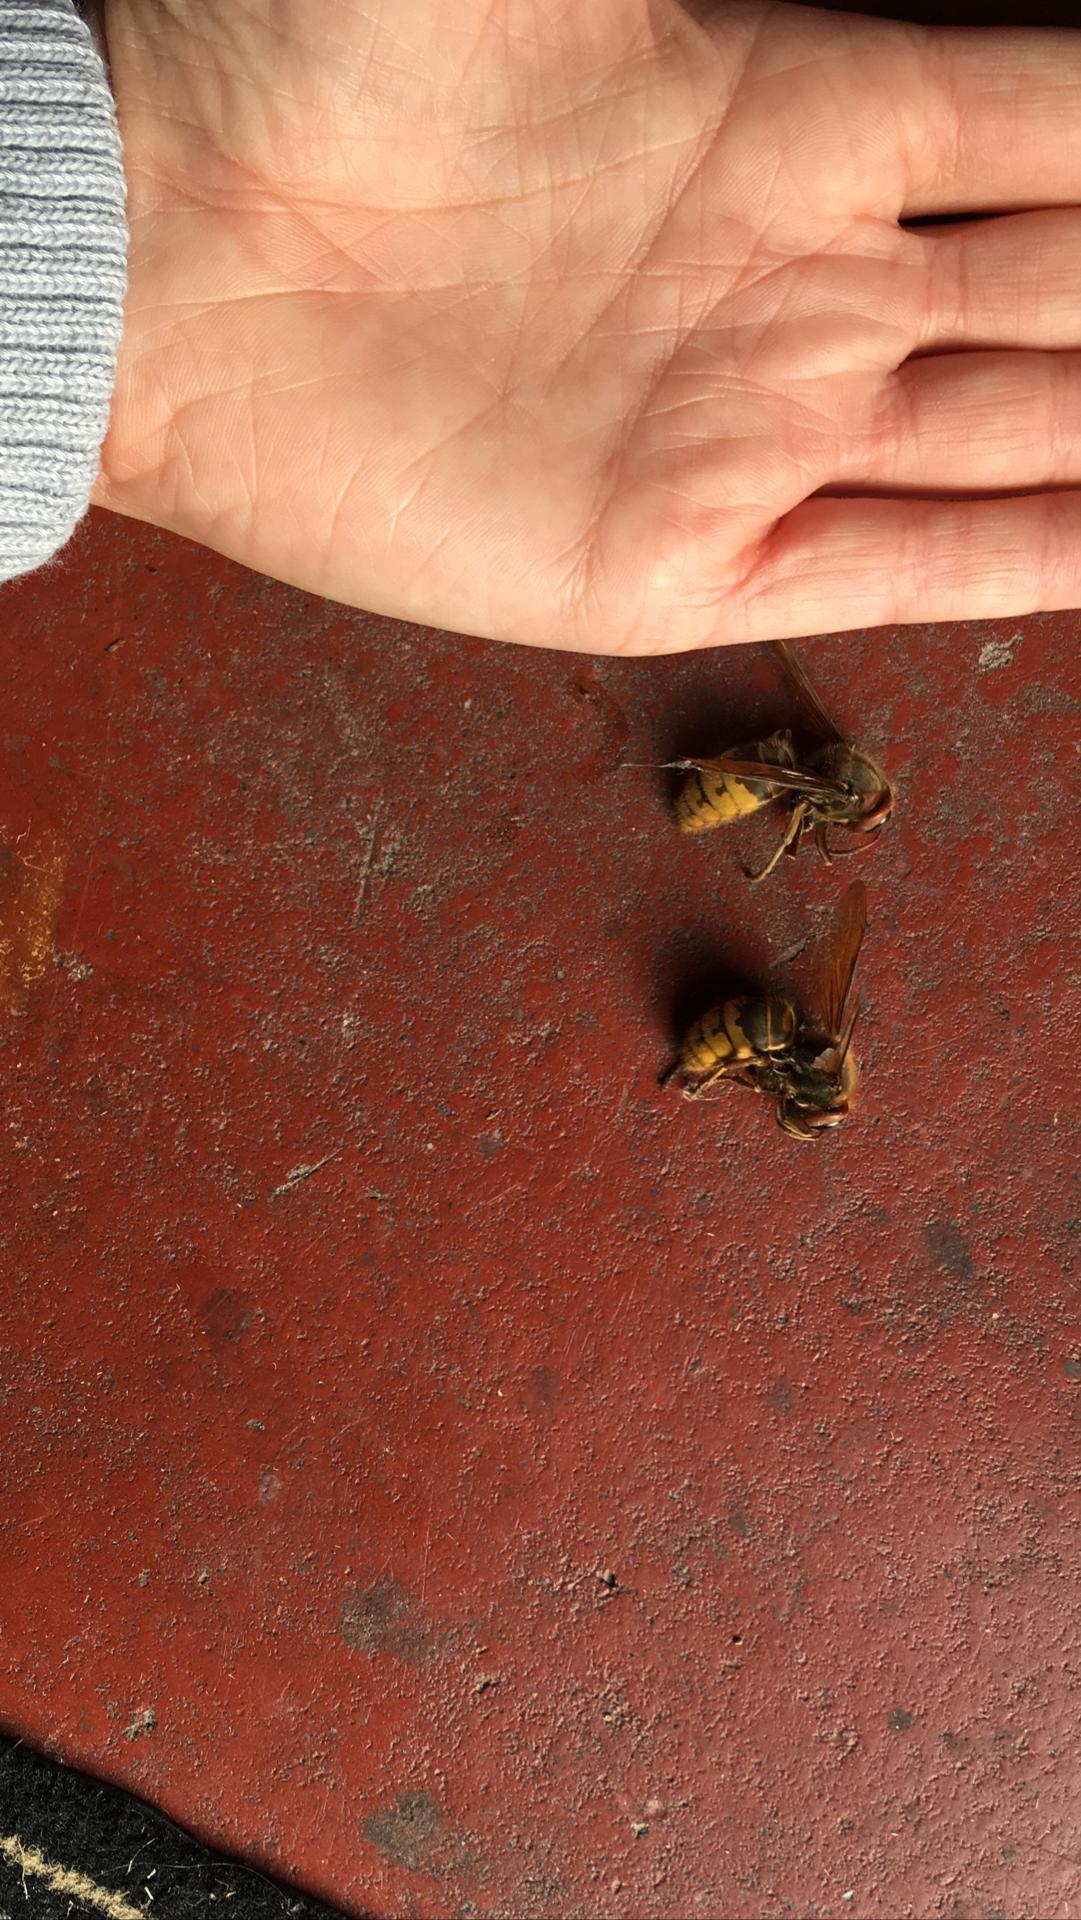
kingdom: Animalia
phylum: Arthropoda
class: Insecta
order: Hymenoptera
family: Vespidae
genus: Vespa
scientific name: Vespa crabro
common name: Hornet
